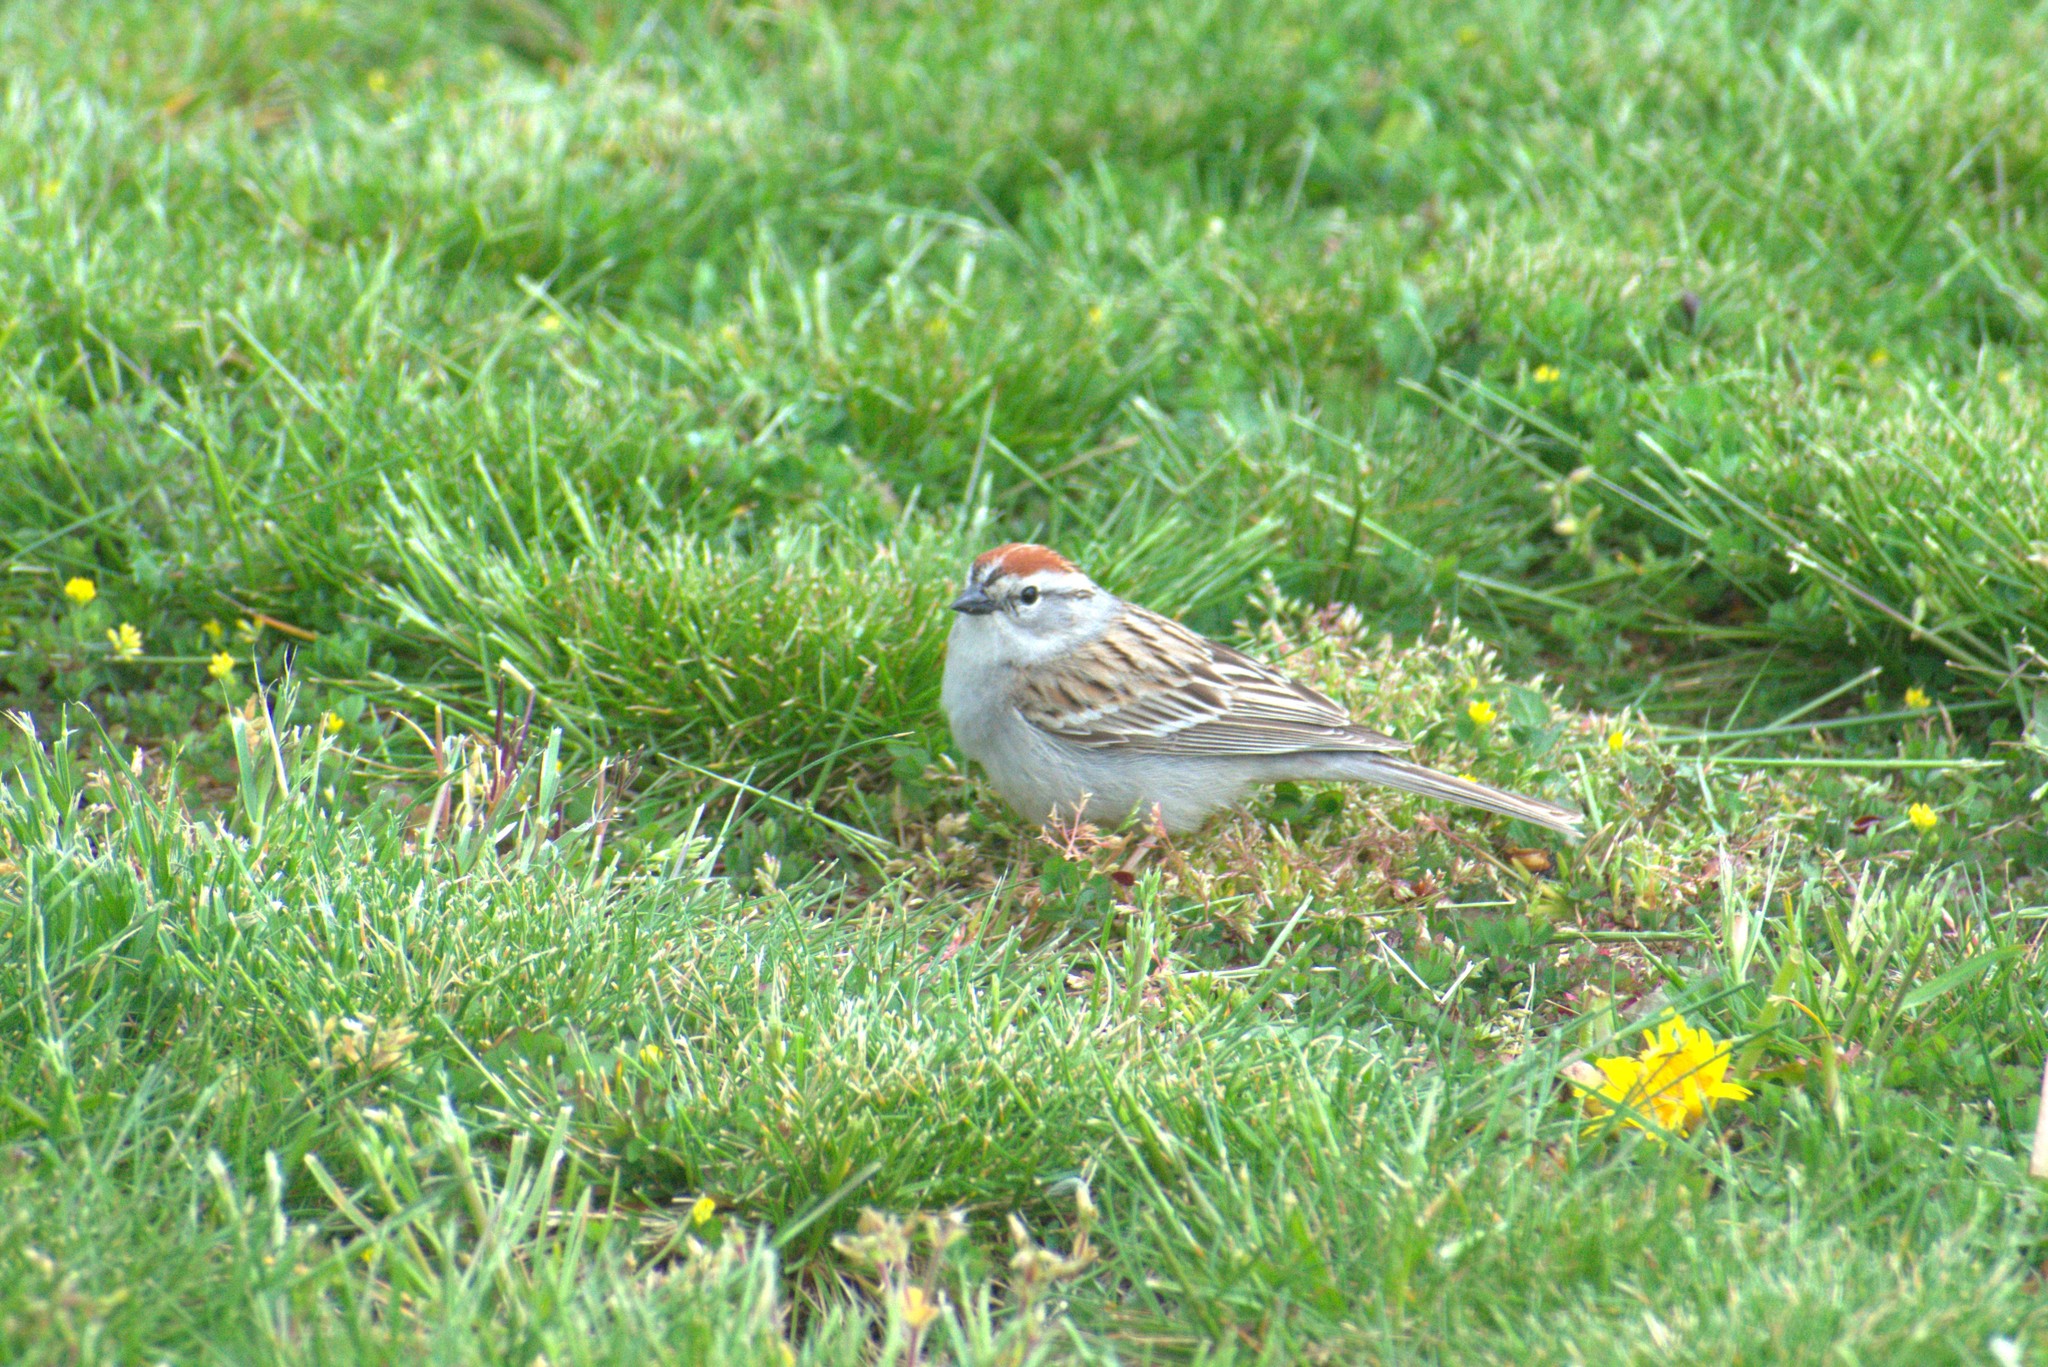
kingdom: Animalia
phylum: Chordata
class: Aves
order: Passeriformes
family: Passerellidae
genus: Spizella
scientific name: Spizella passerina
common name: Chipping sparrow
